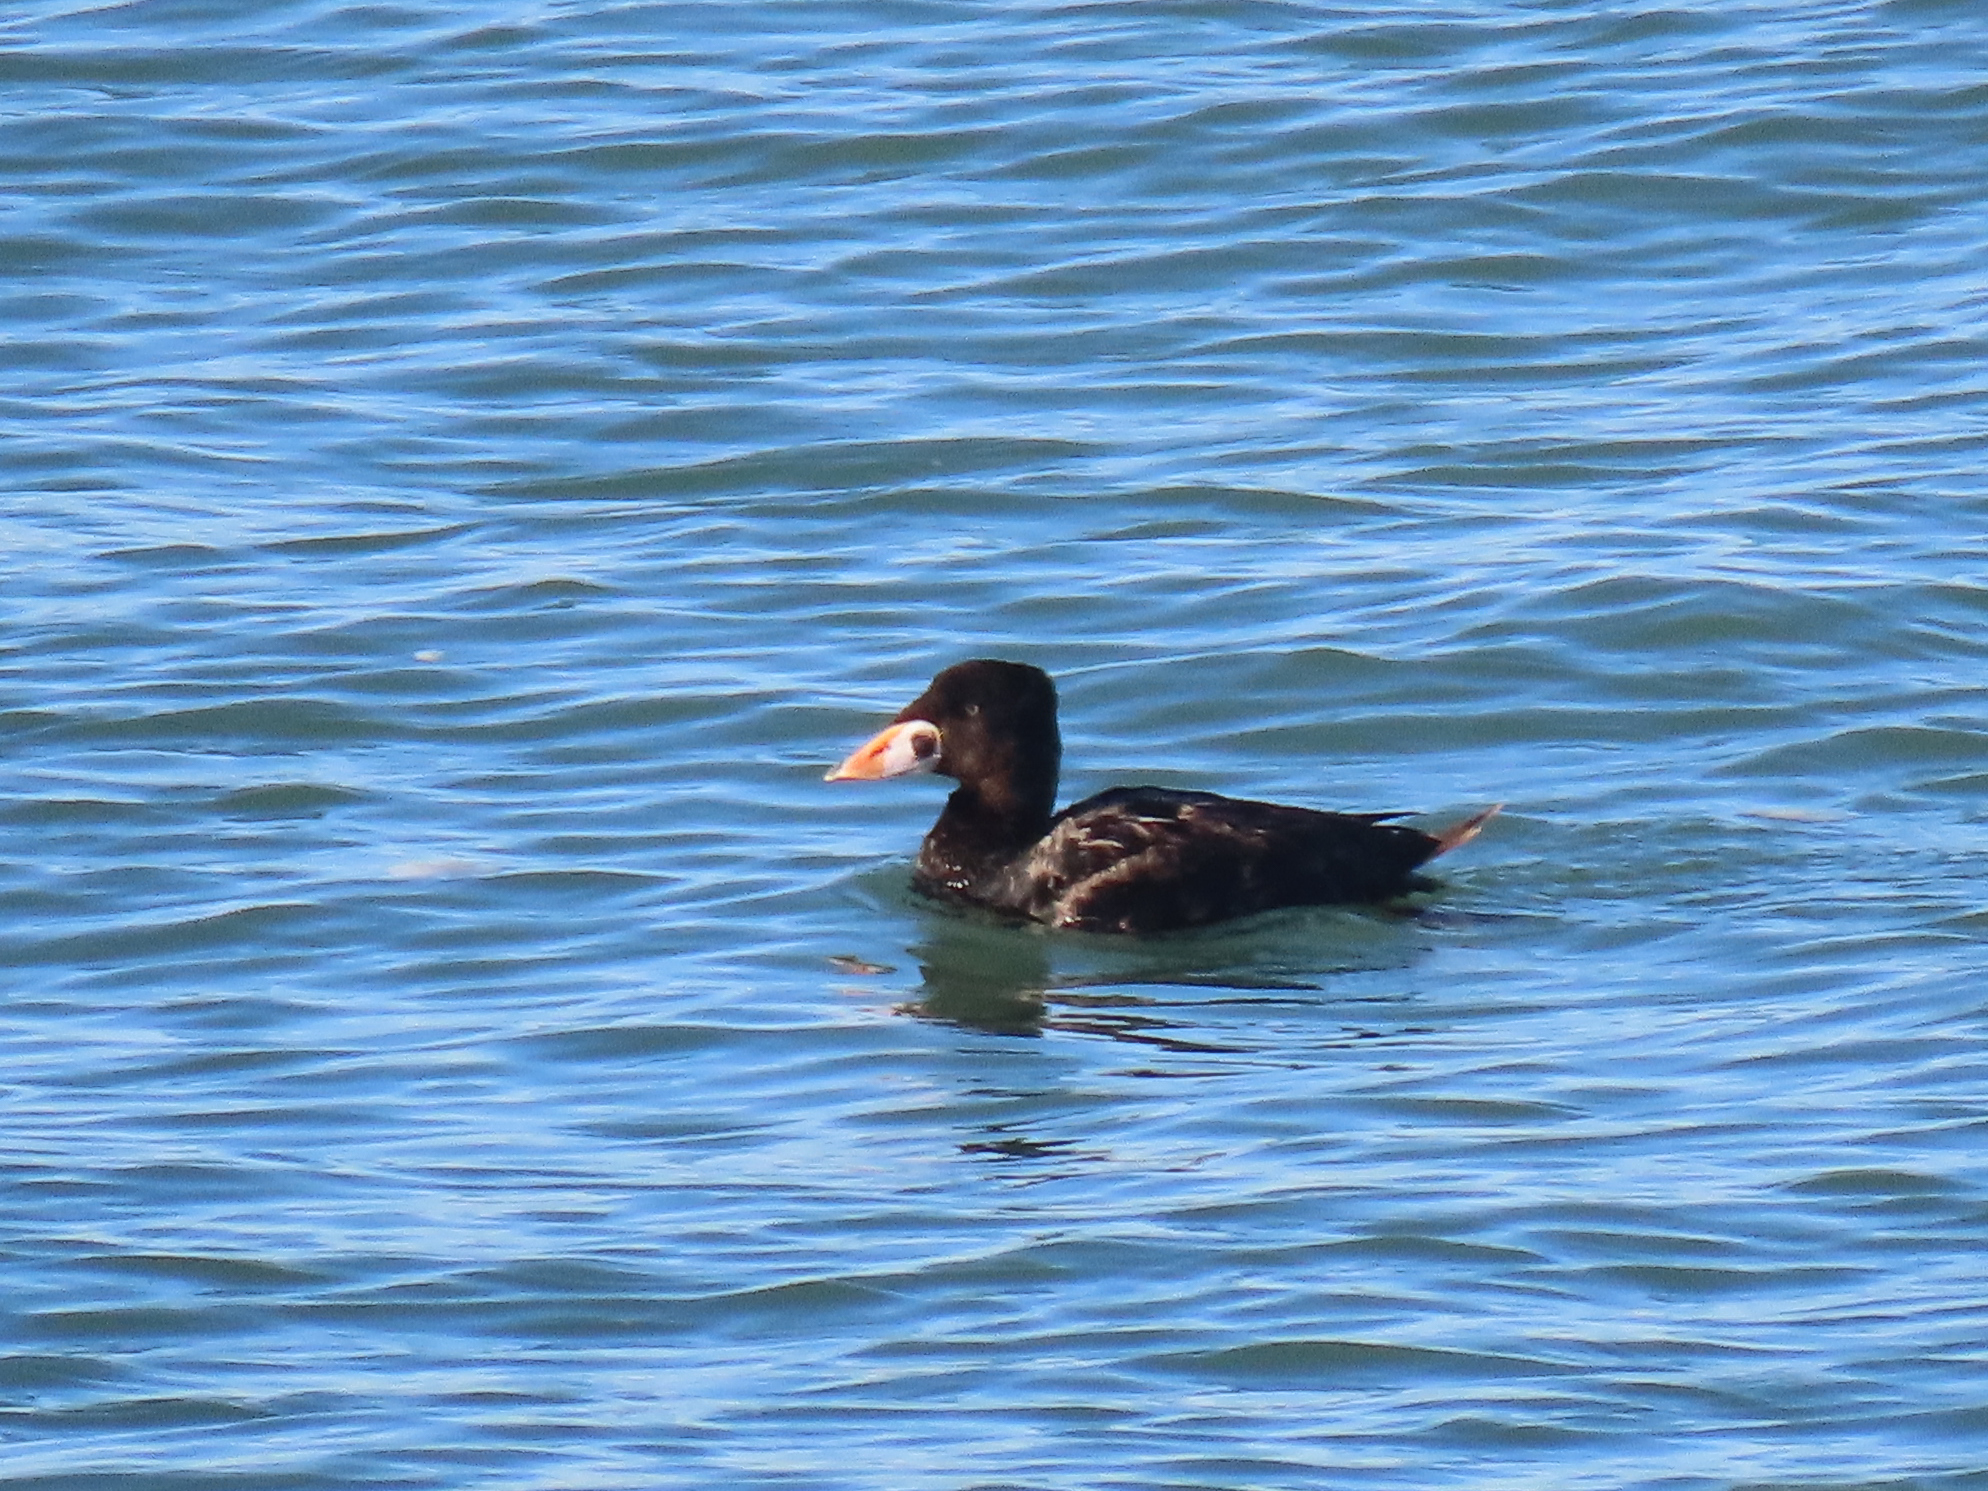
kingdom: Animalia
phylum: Chordata
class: Aves
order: Anseriformes
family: Anatidae
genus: Melanitta
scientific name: Melanitta perspicillata
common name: Surf scoter
